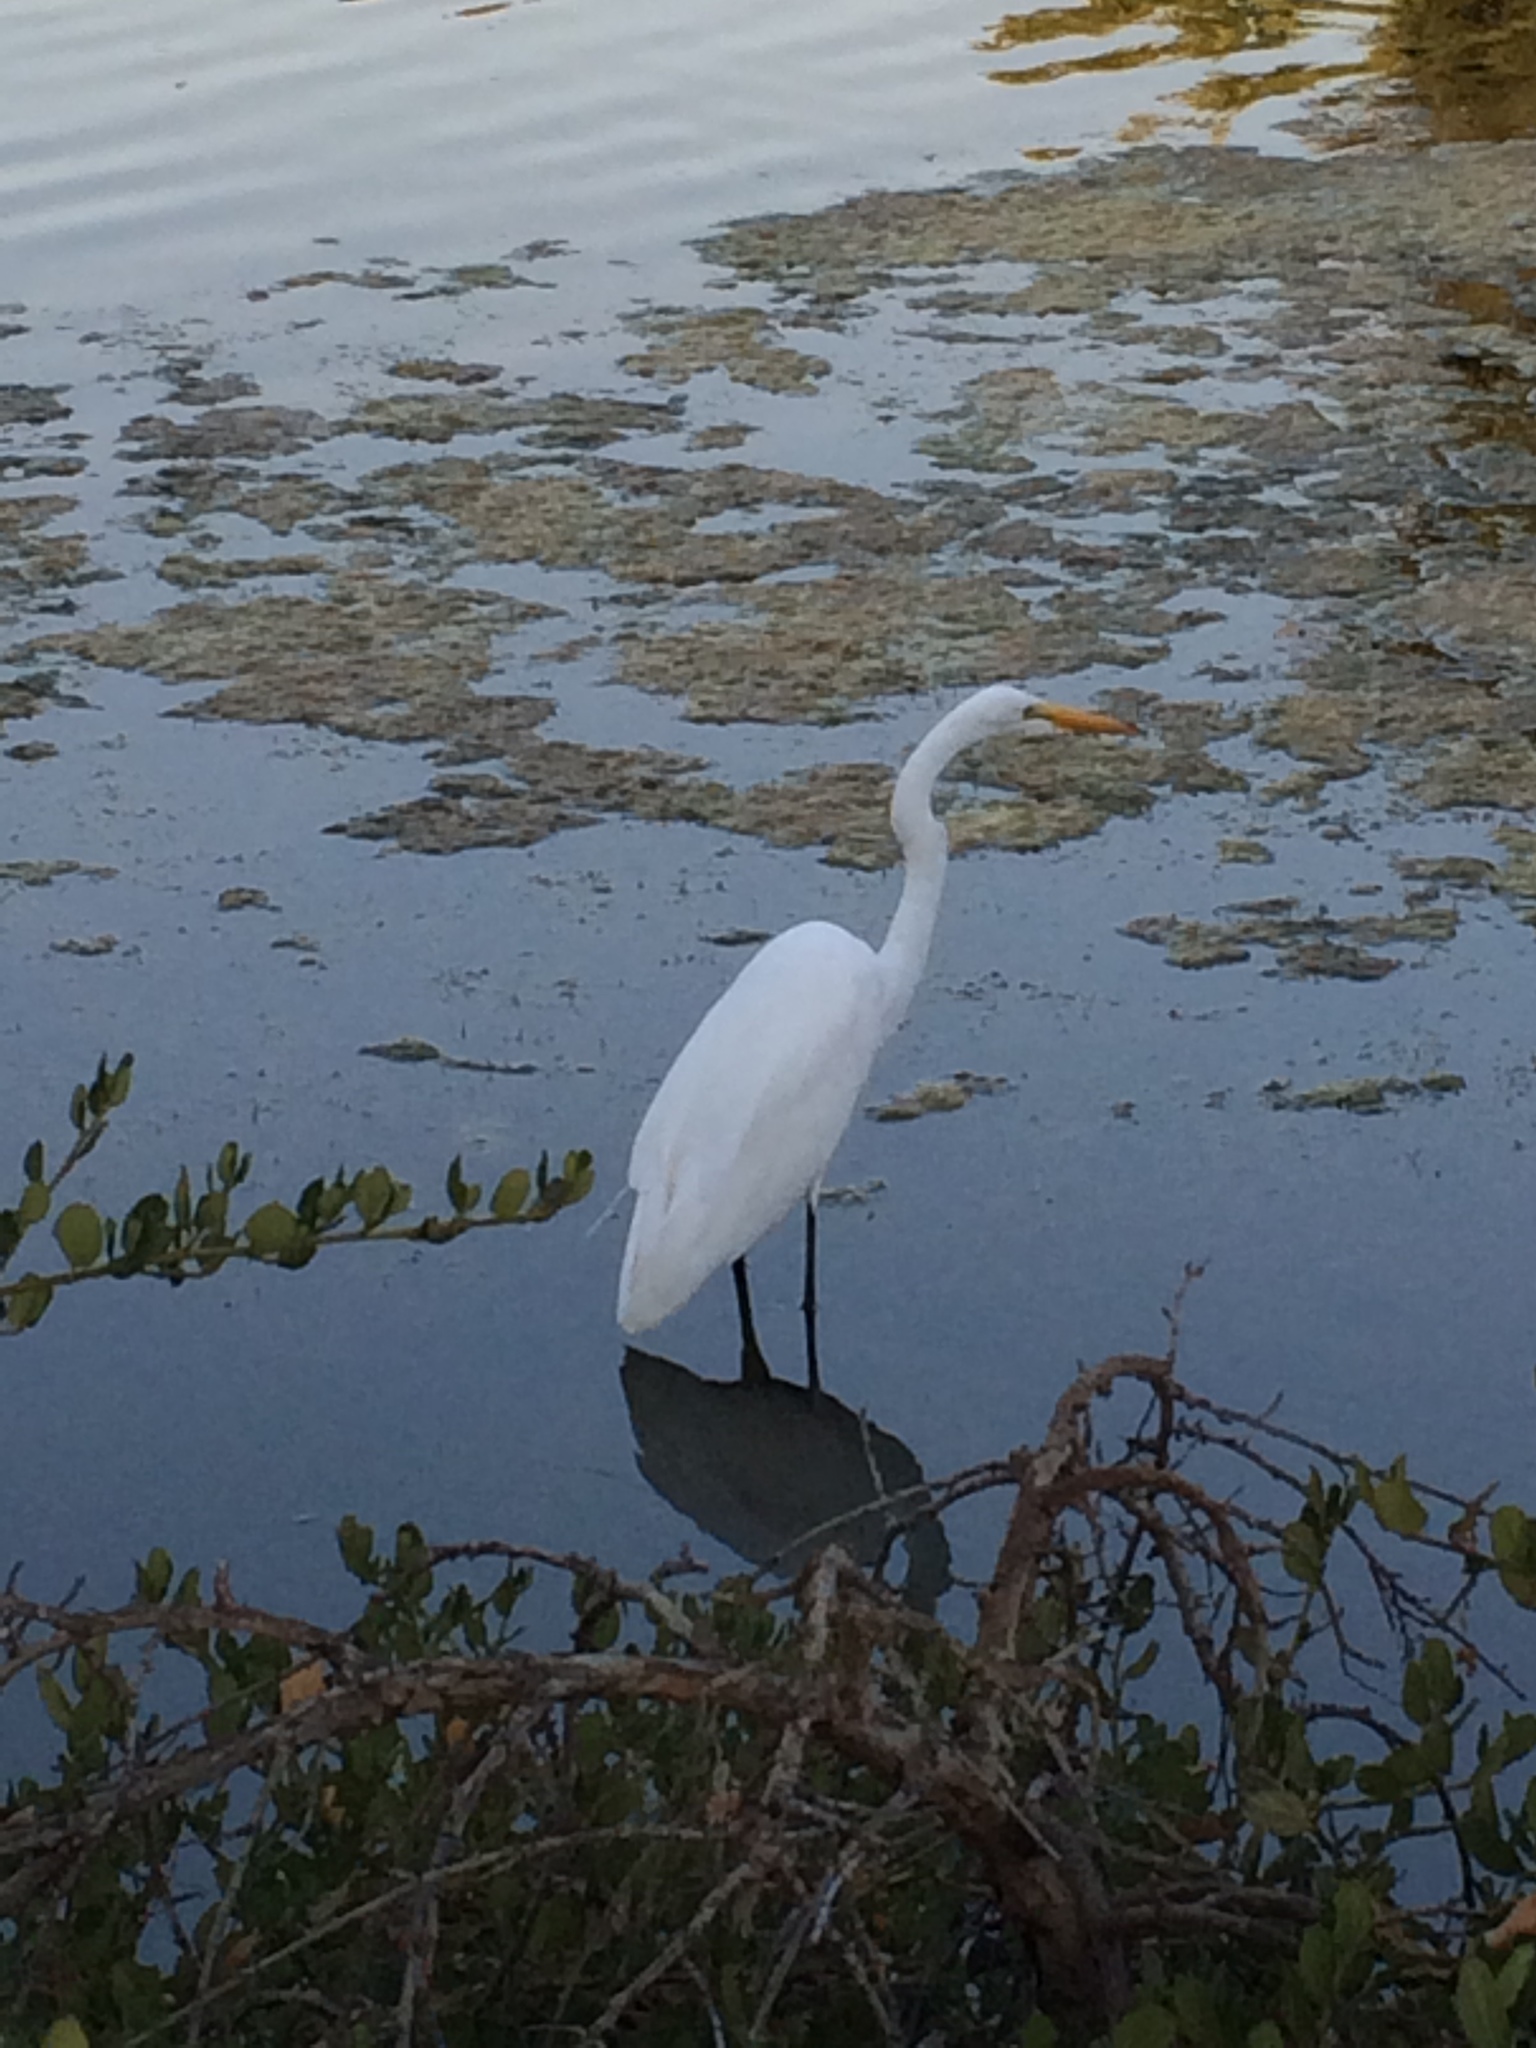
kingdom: Animalia
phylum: Chordata
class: Aves
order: Pelecaniformes
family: Ardeidae
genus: Ardea
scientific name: Ardea alba
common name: Great egret
